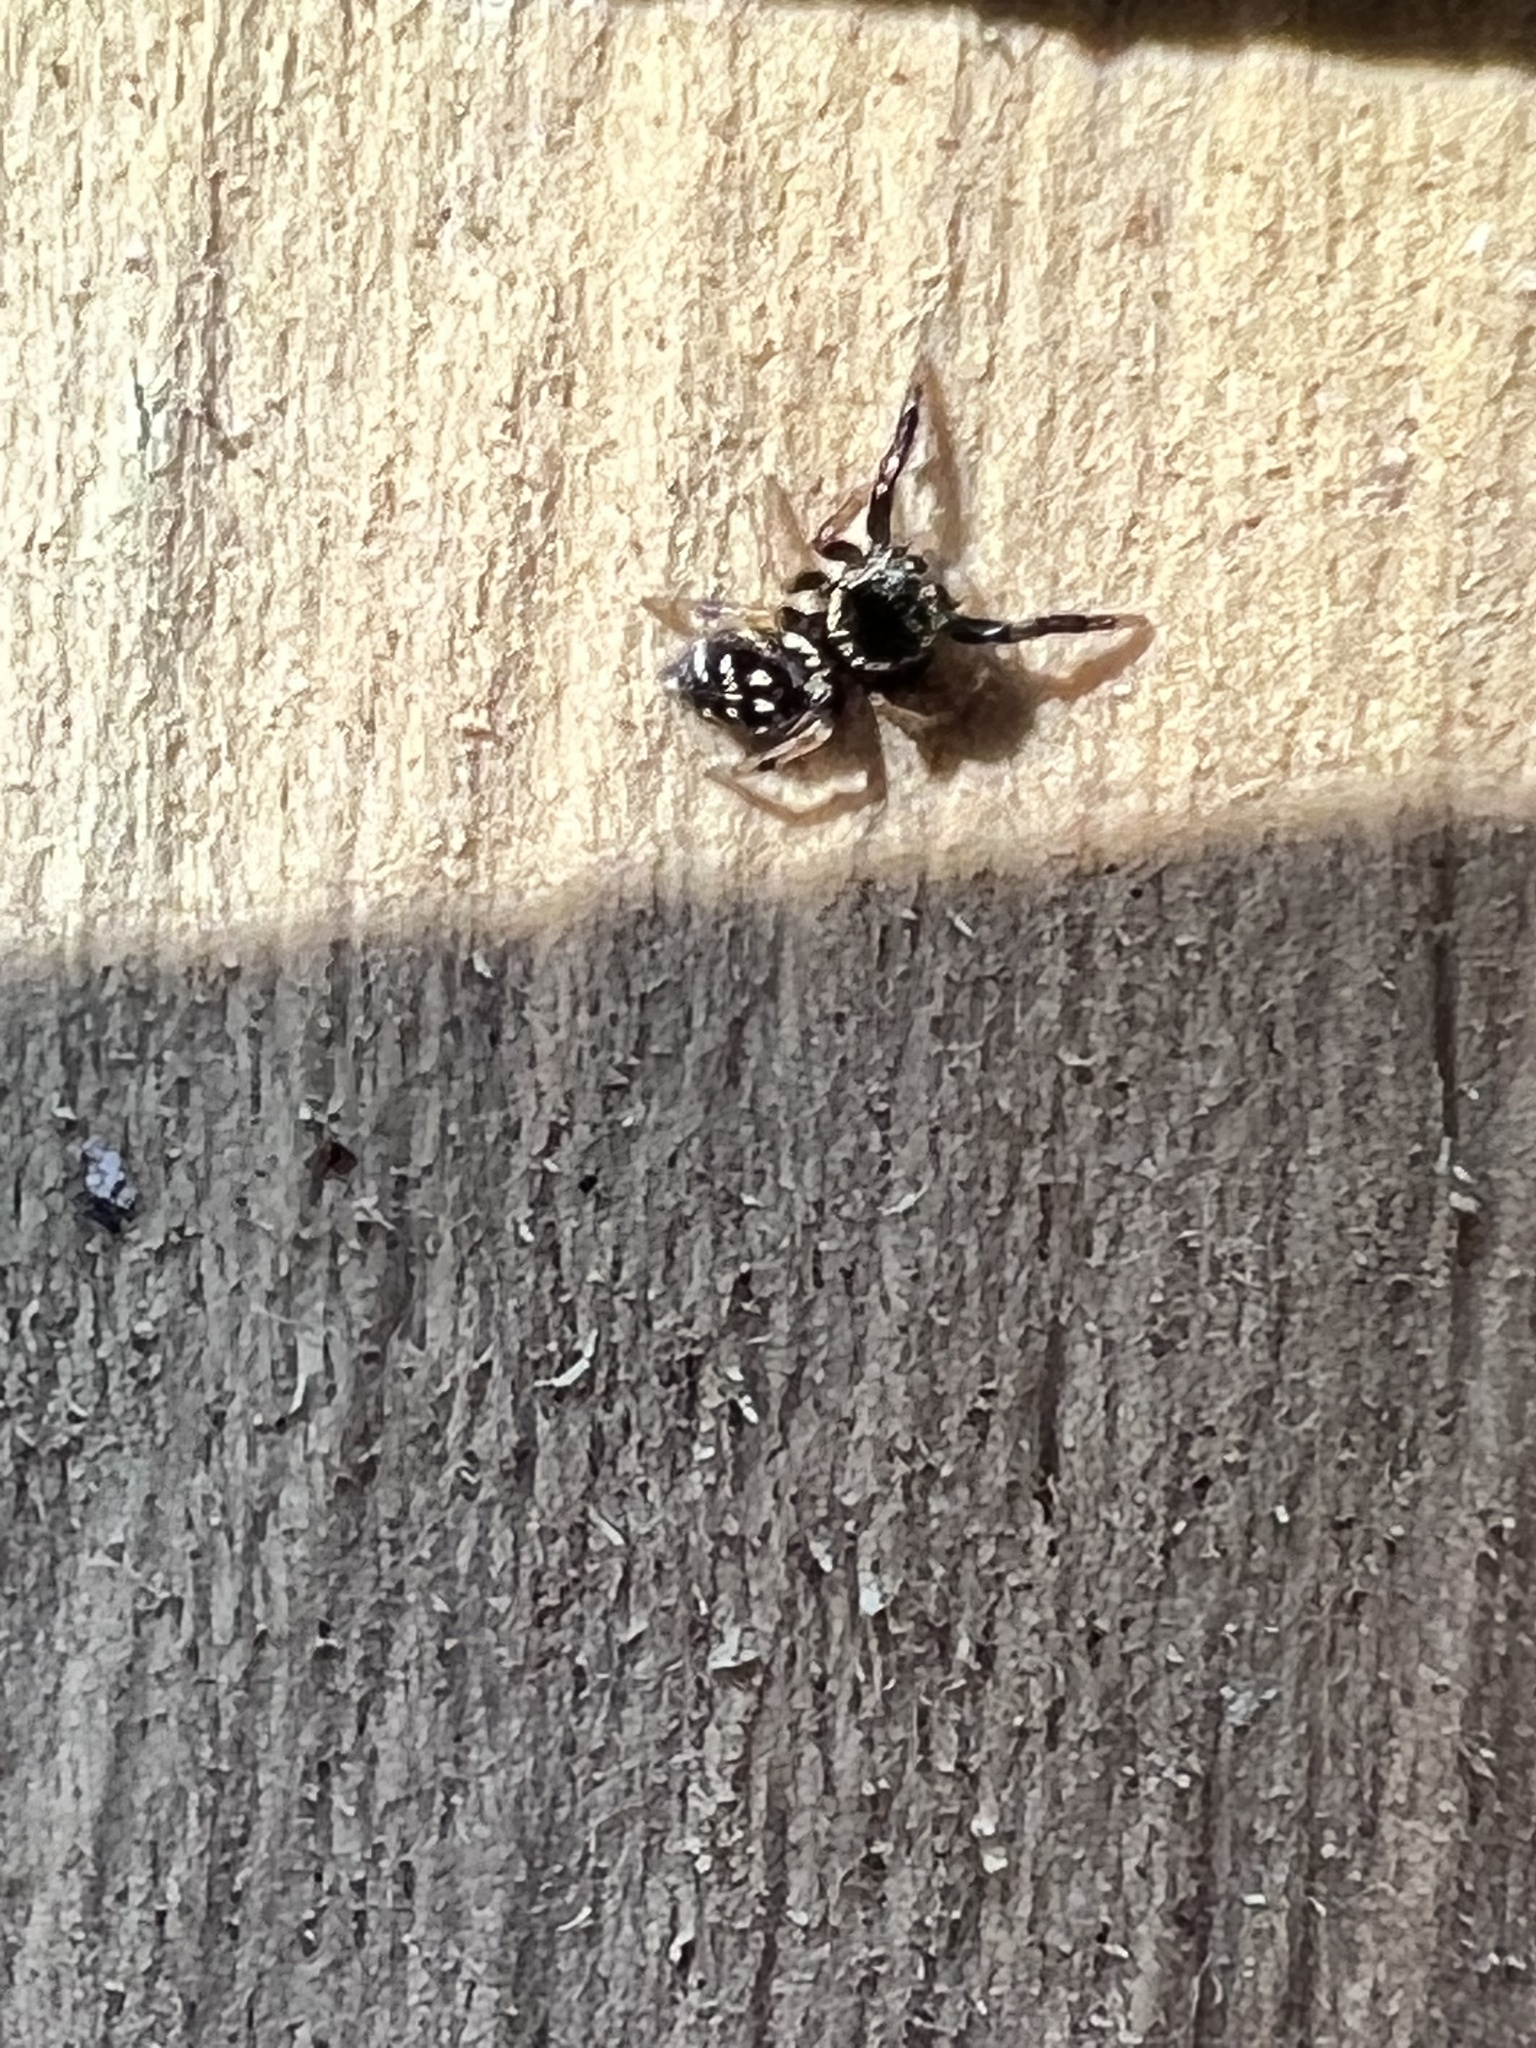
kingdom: Animalia
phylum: Arthropoda
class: Arachnida
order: Araneae
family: Salticidae
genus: Paraphidippus
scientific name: Paraphidippus aurantius
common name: Jumping spiders
